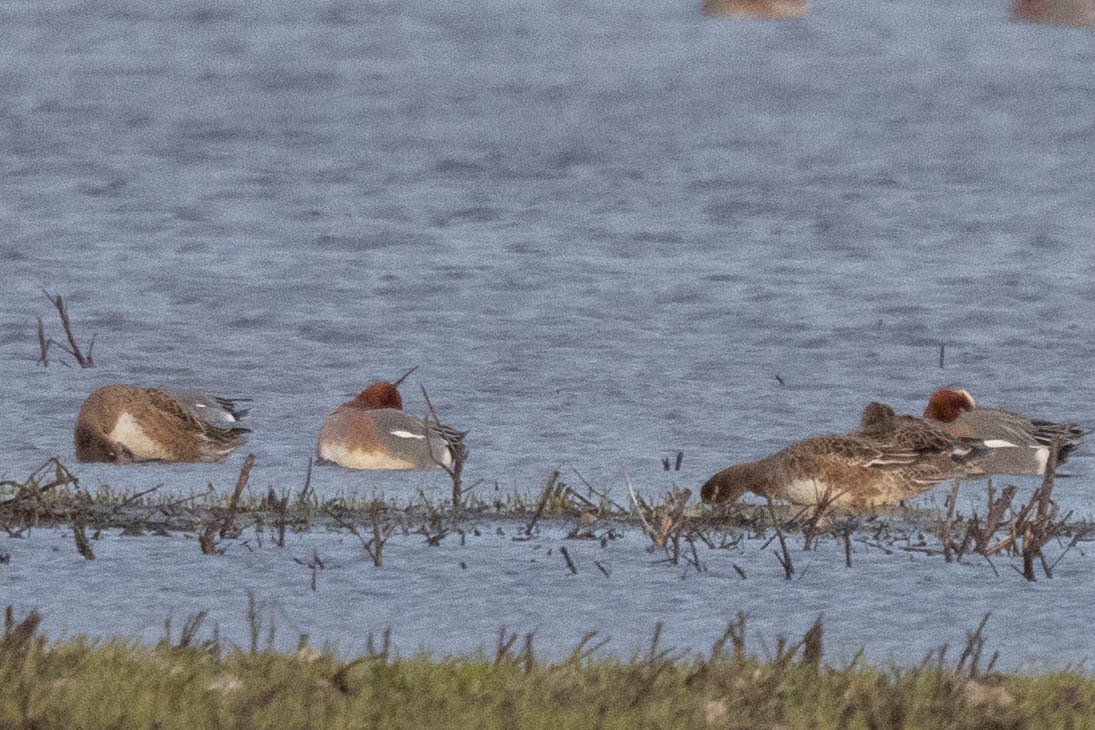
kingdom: Animalia
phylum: Chordata
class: Aves
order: Anseriformes
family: Anatidae
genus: Mareca
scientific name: Mareca penelope
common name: Eurasian wigeon
